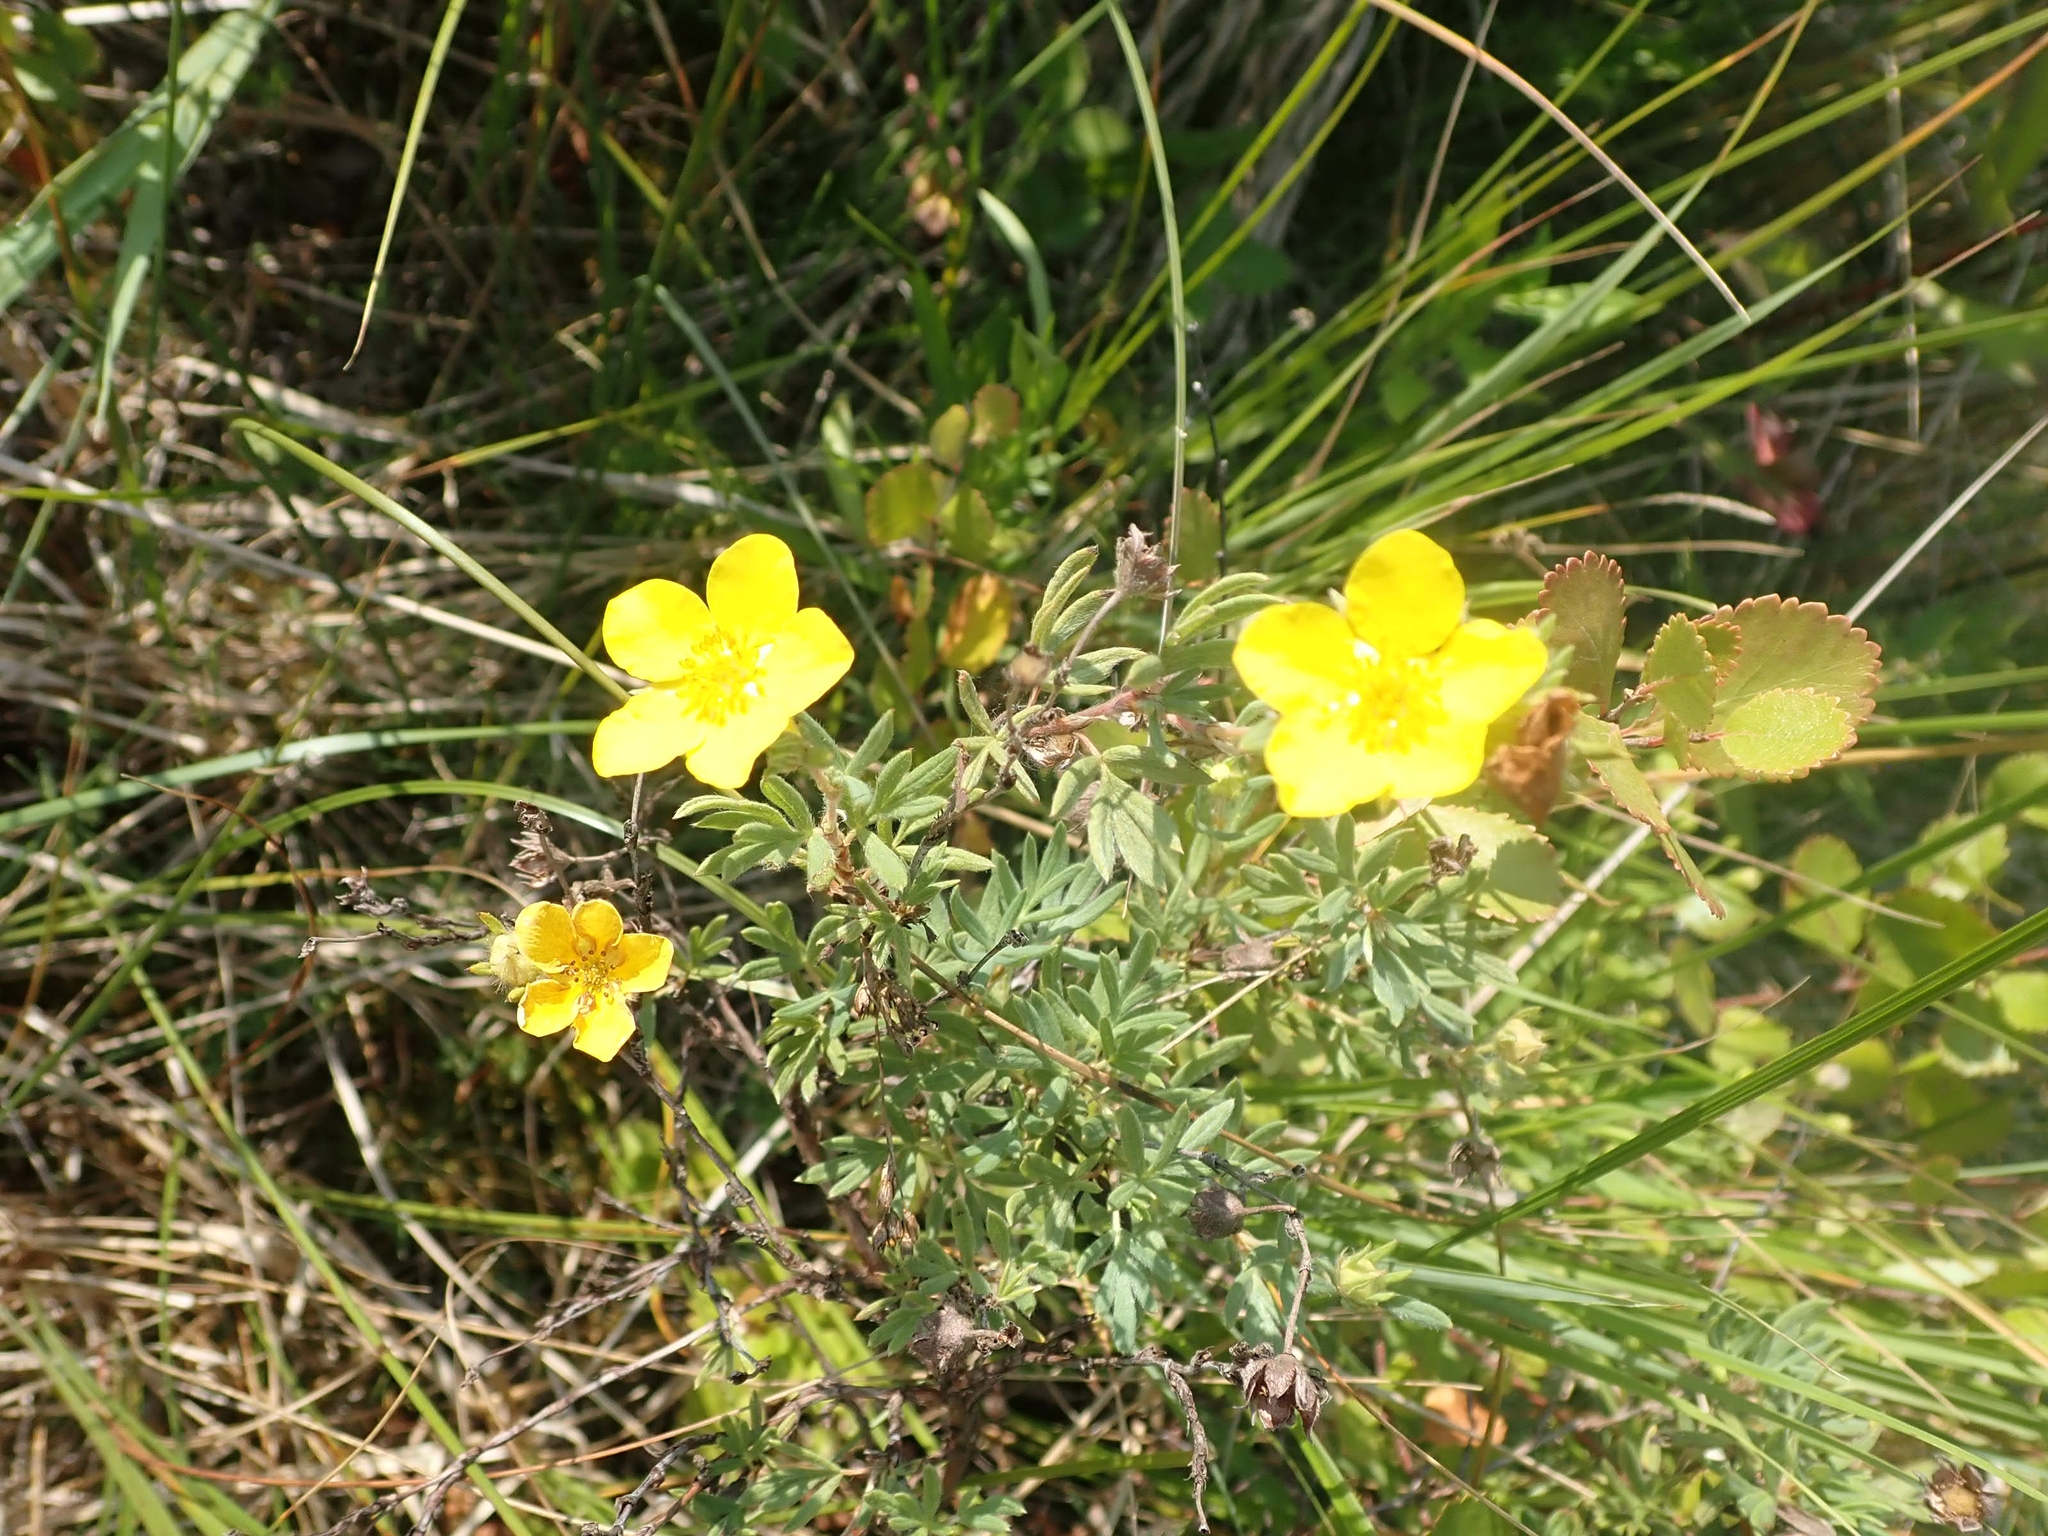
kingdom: Plantae
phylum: Tracheophyta
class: Magnoliopsida
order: Rosales
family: Rosaceae
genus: Dasiphora
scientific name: Dasiphora fruticosa
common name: Shrubby cinquefoil
